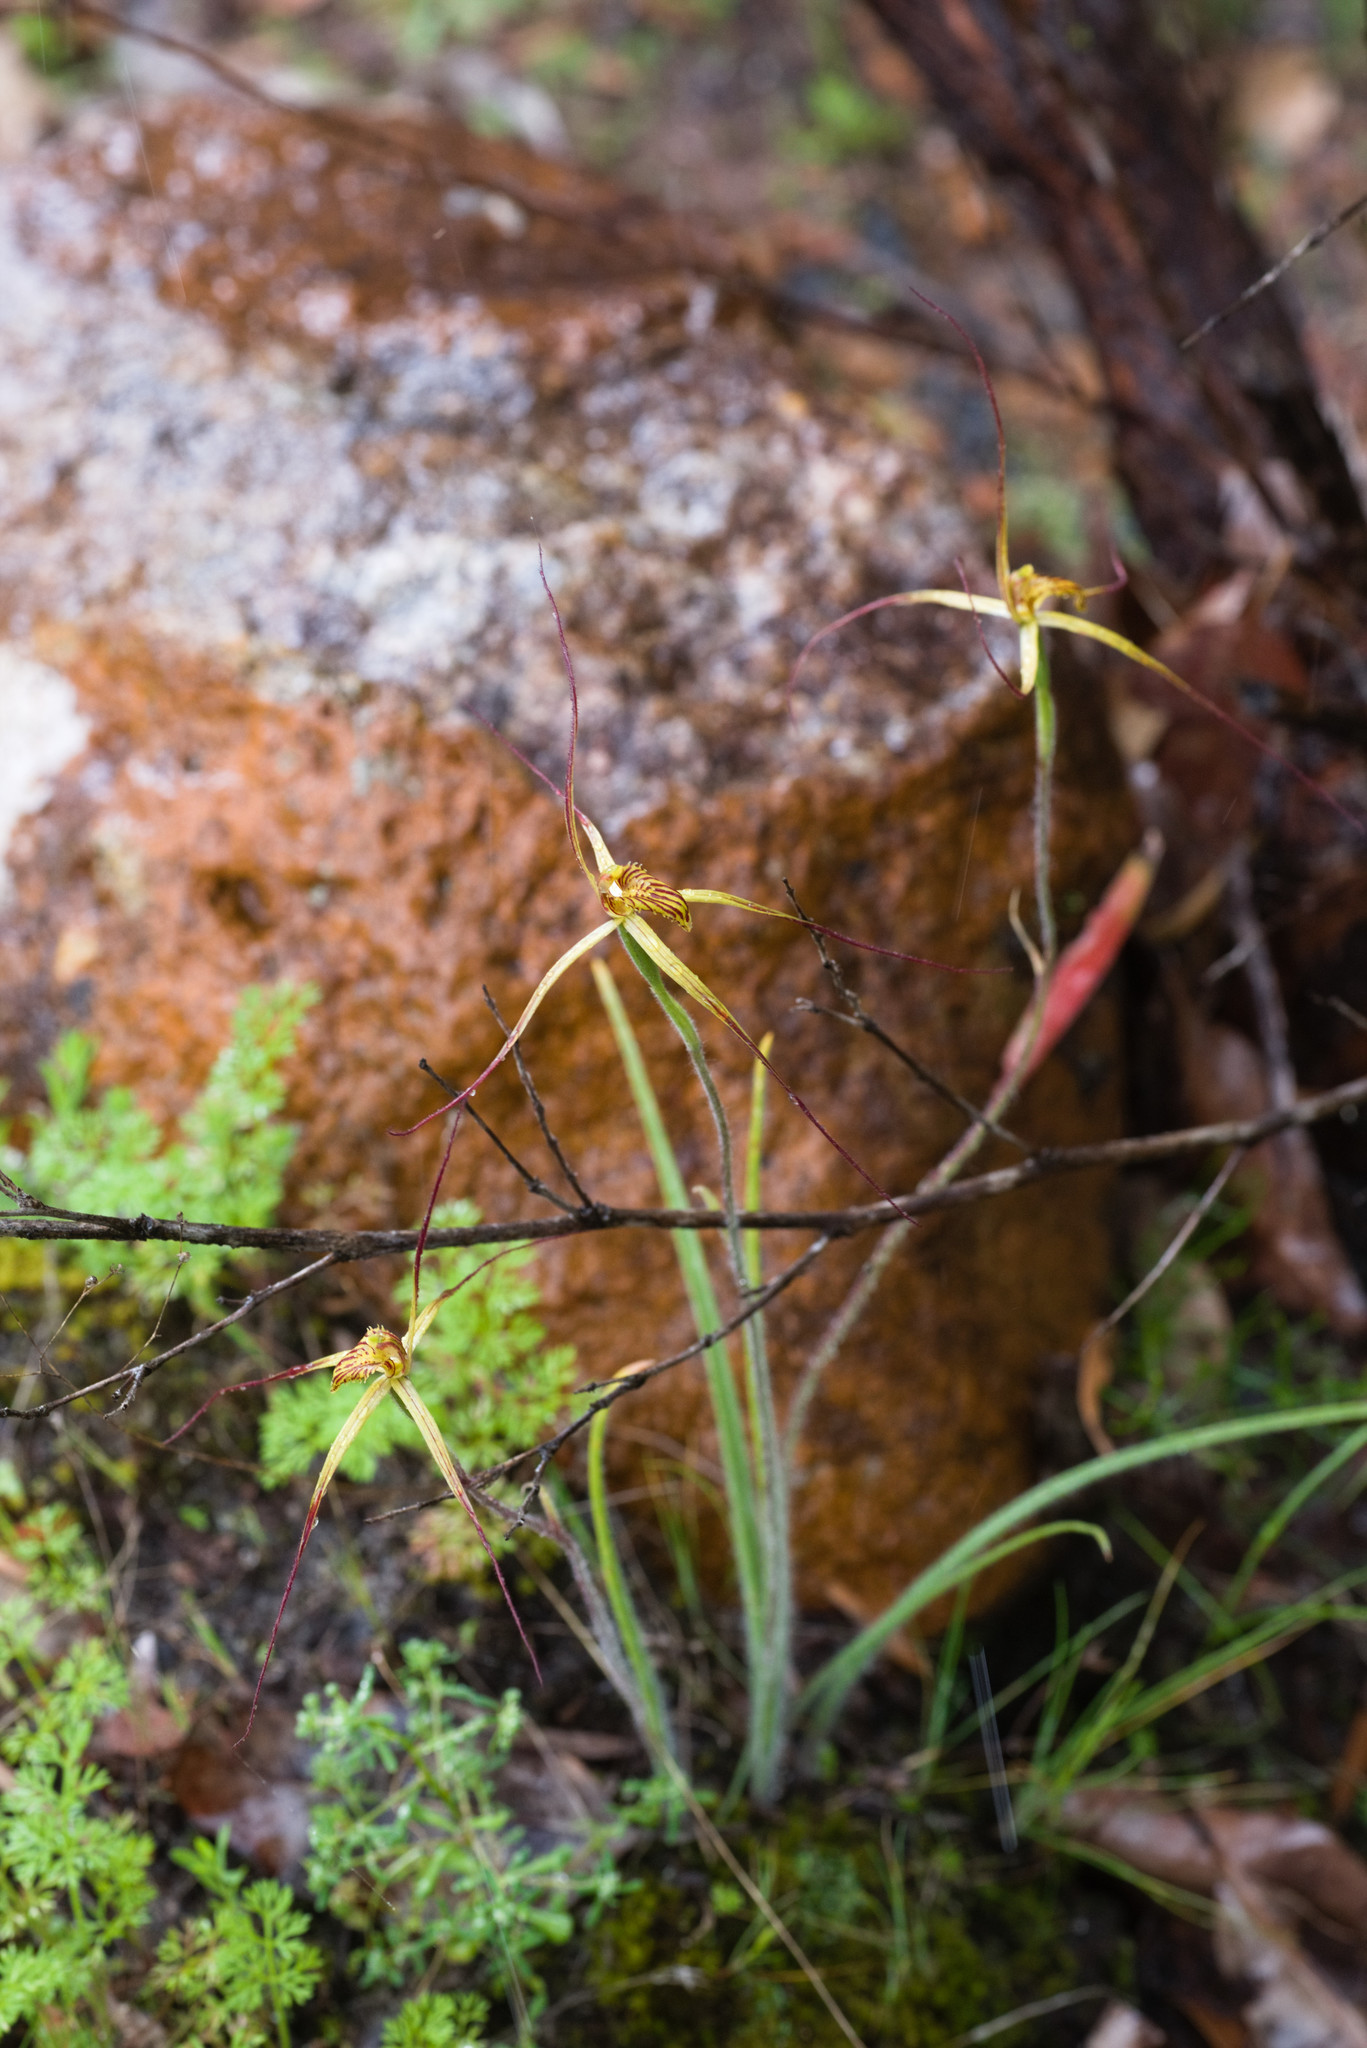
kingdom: Plantae
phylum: Tracheophyta
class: Liliopsida
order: Asparagales
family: Orchidaceae
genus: Caladenia
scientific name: Caladenia caesarea
